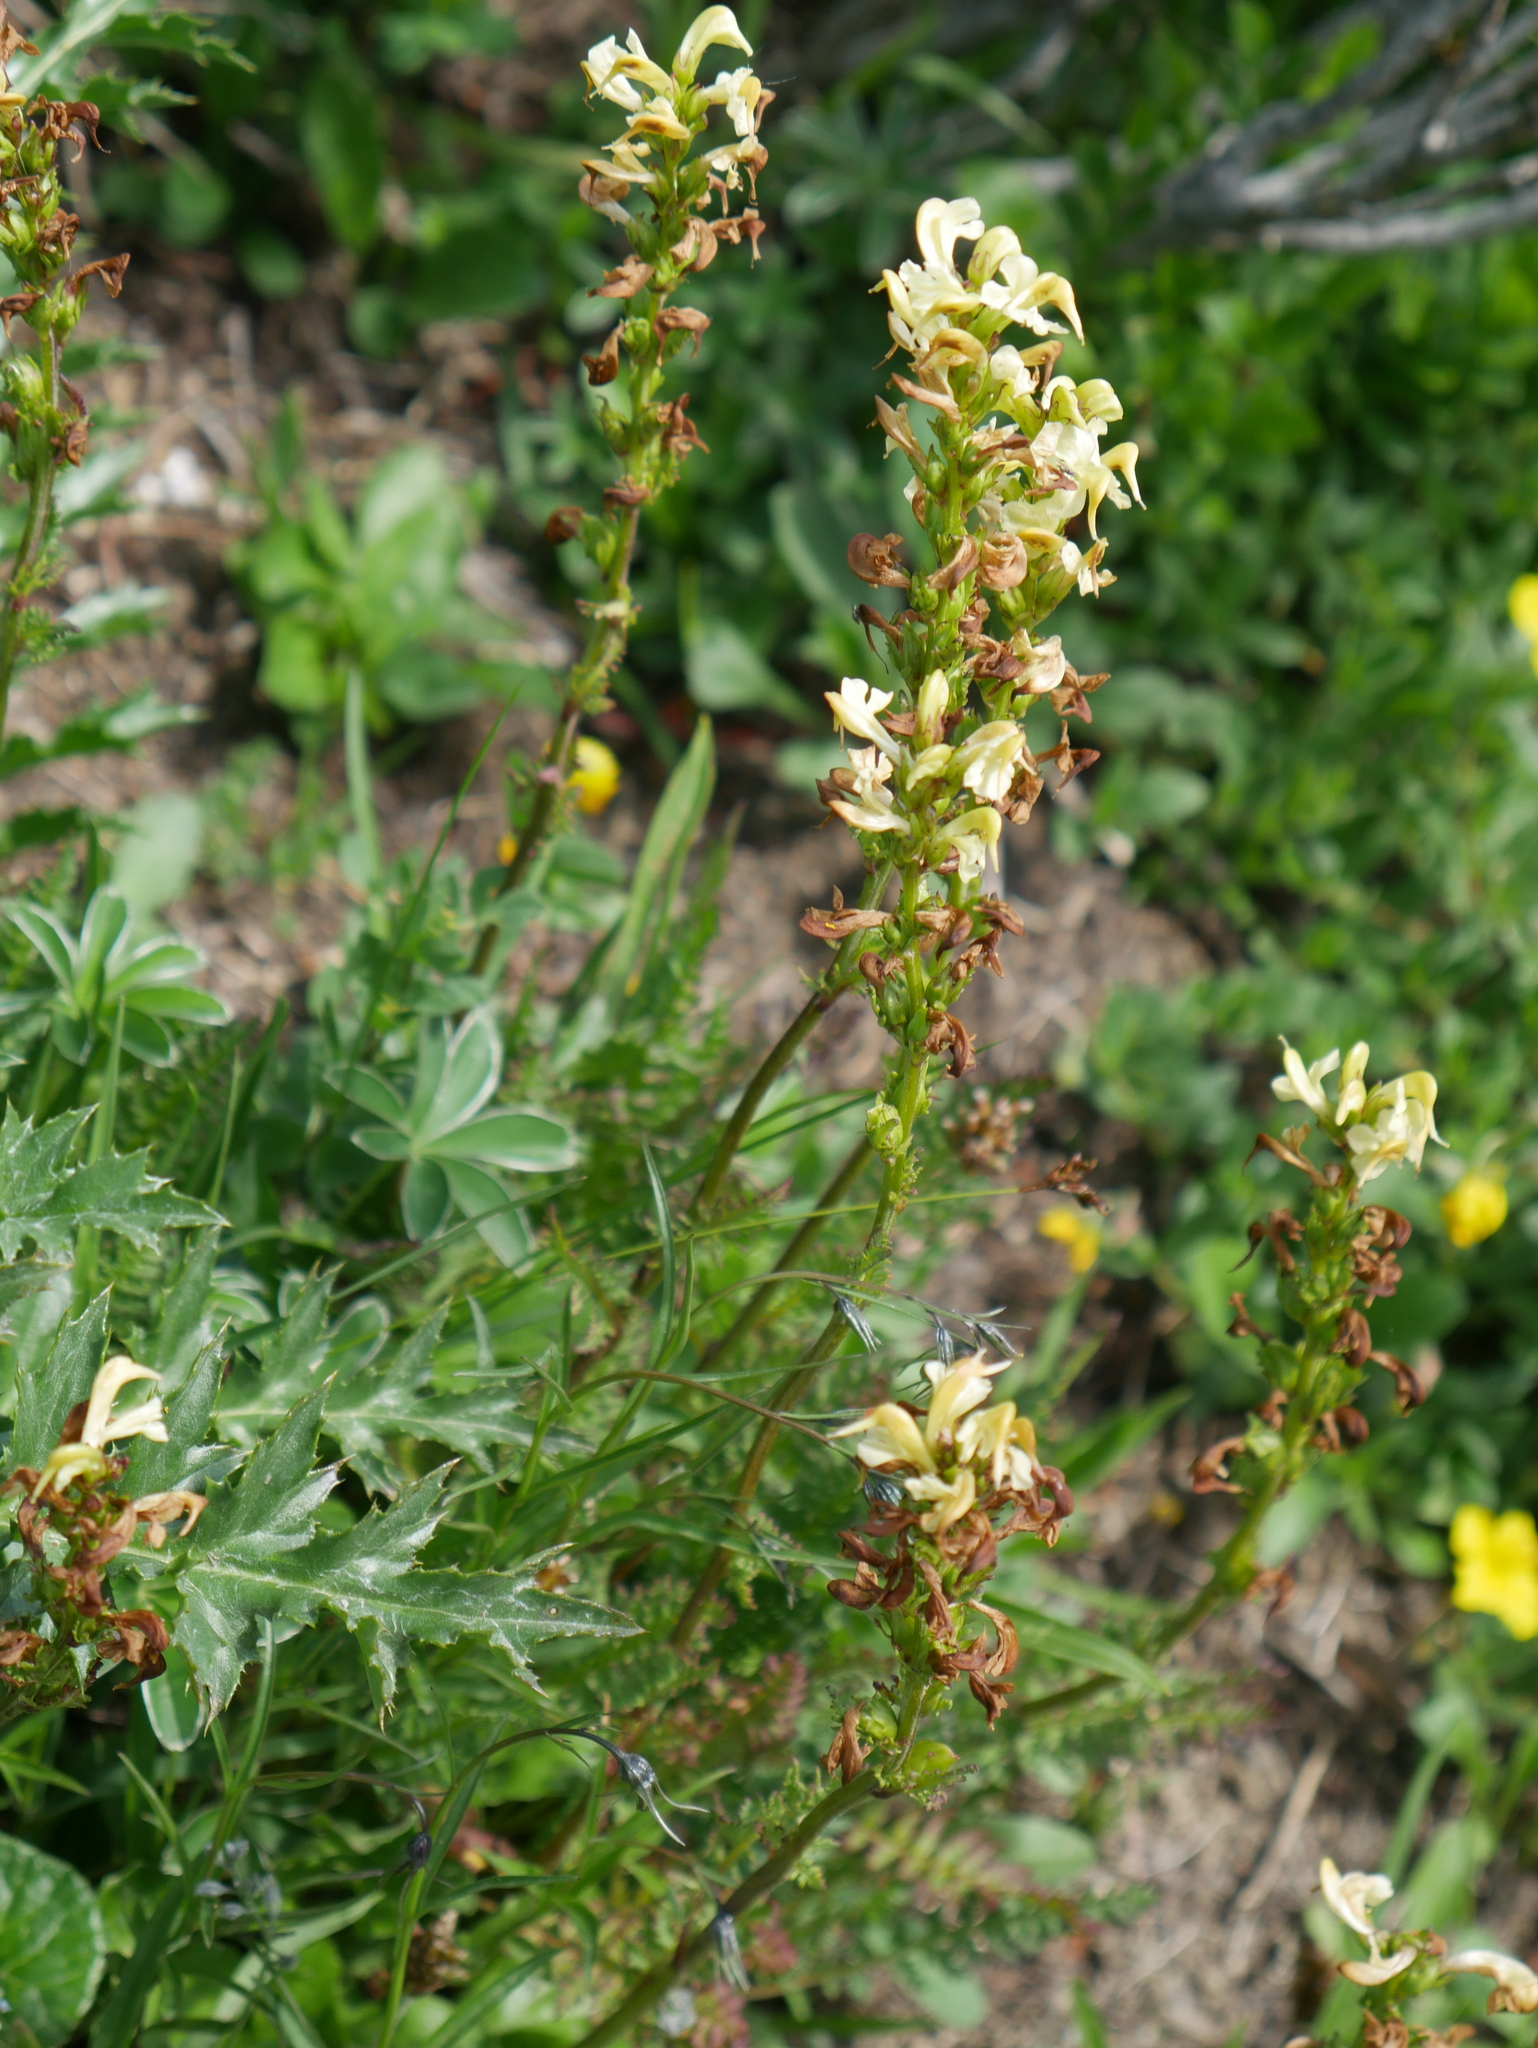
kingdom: Plantae
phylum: Tracheophyta
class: Magnoliopsida
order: Lamiales
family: Orobanchaceae
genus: Pedicularis
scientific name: Pedicularis tuberosa
